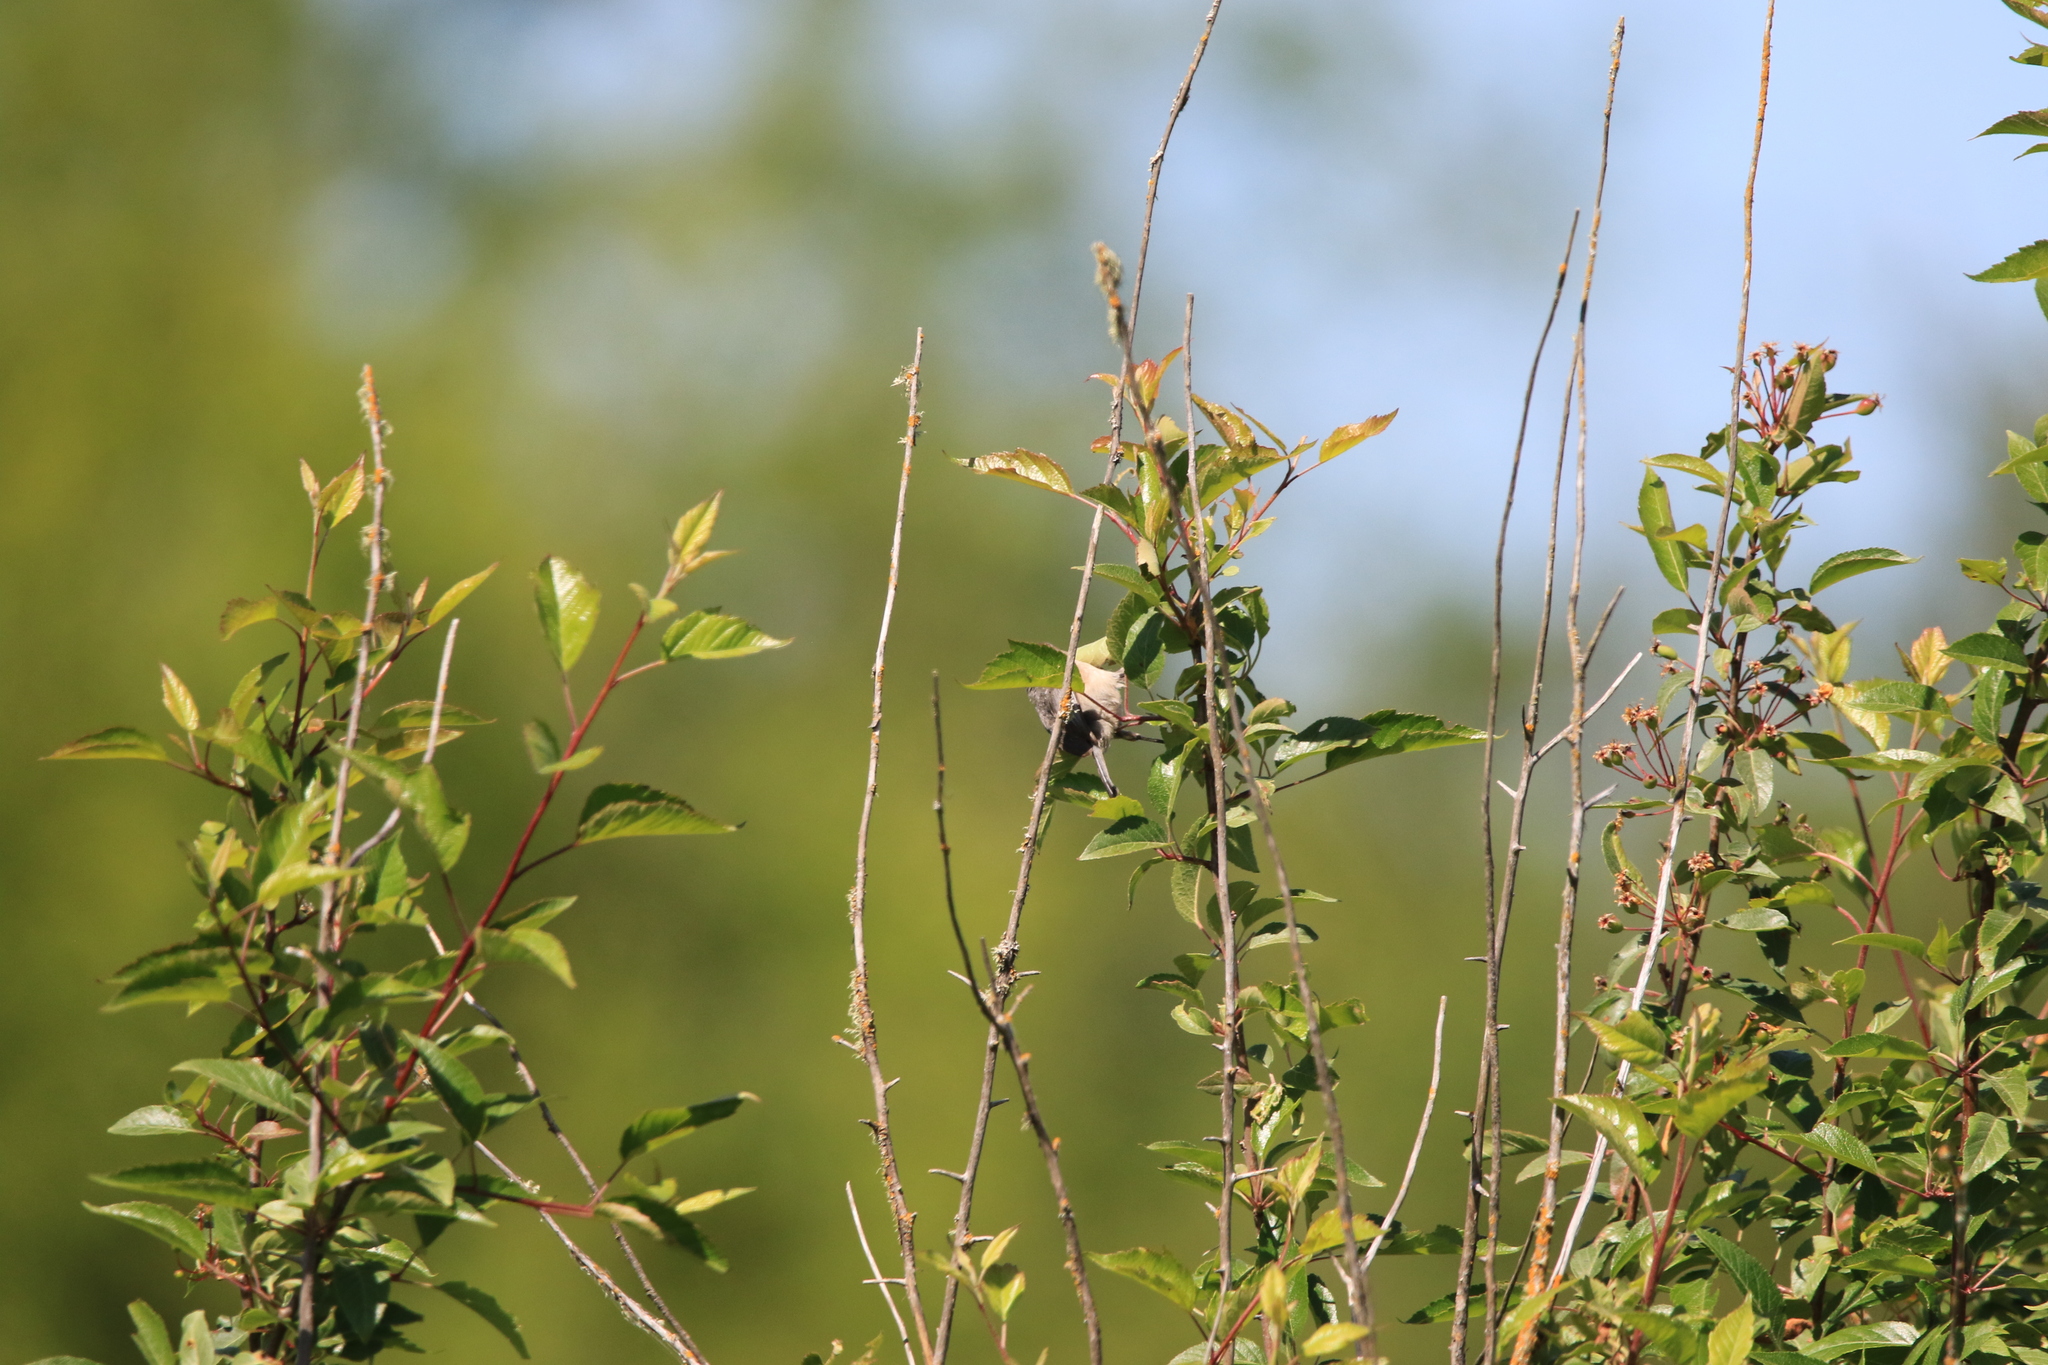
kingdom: Animalia
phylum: Chordata
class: Aves
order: Passeriformes
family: Aegithalidae
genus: Psaltriparus
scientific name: Psaltriparus minimus
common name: American bushtit
